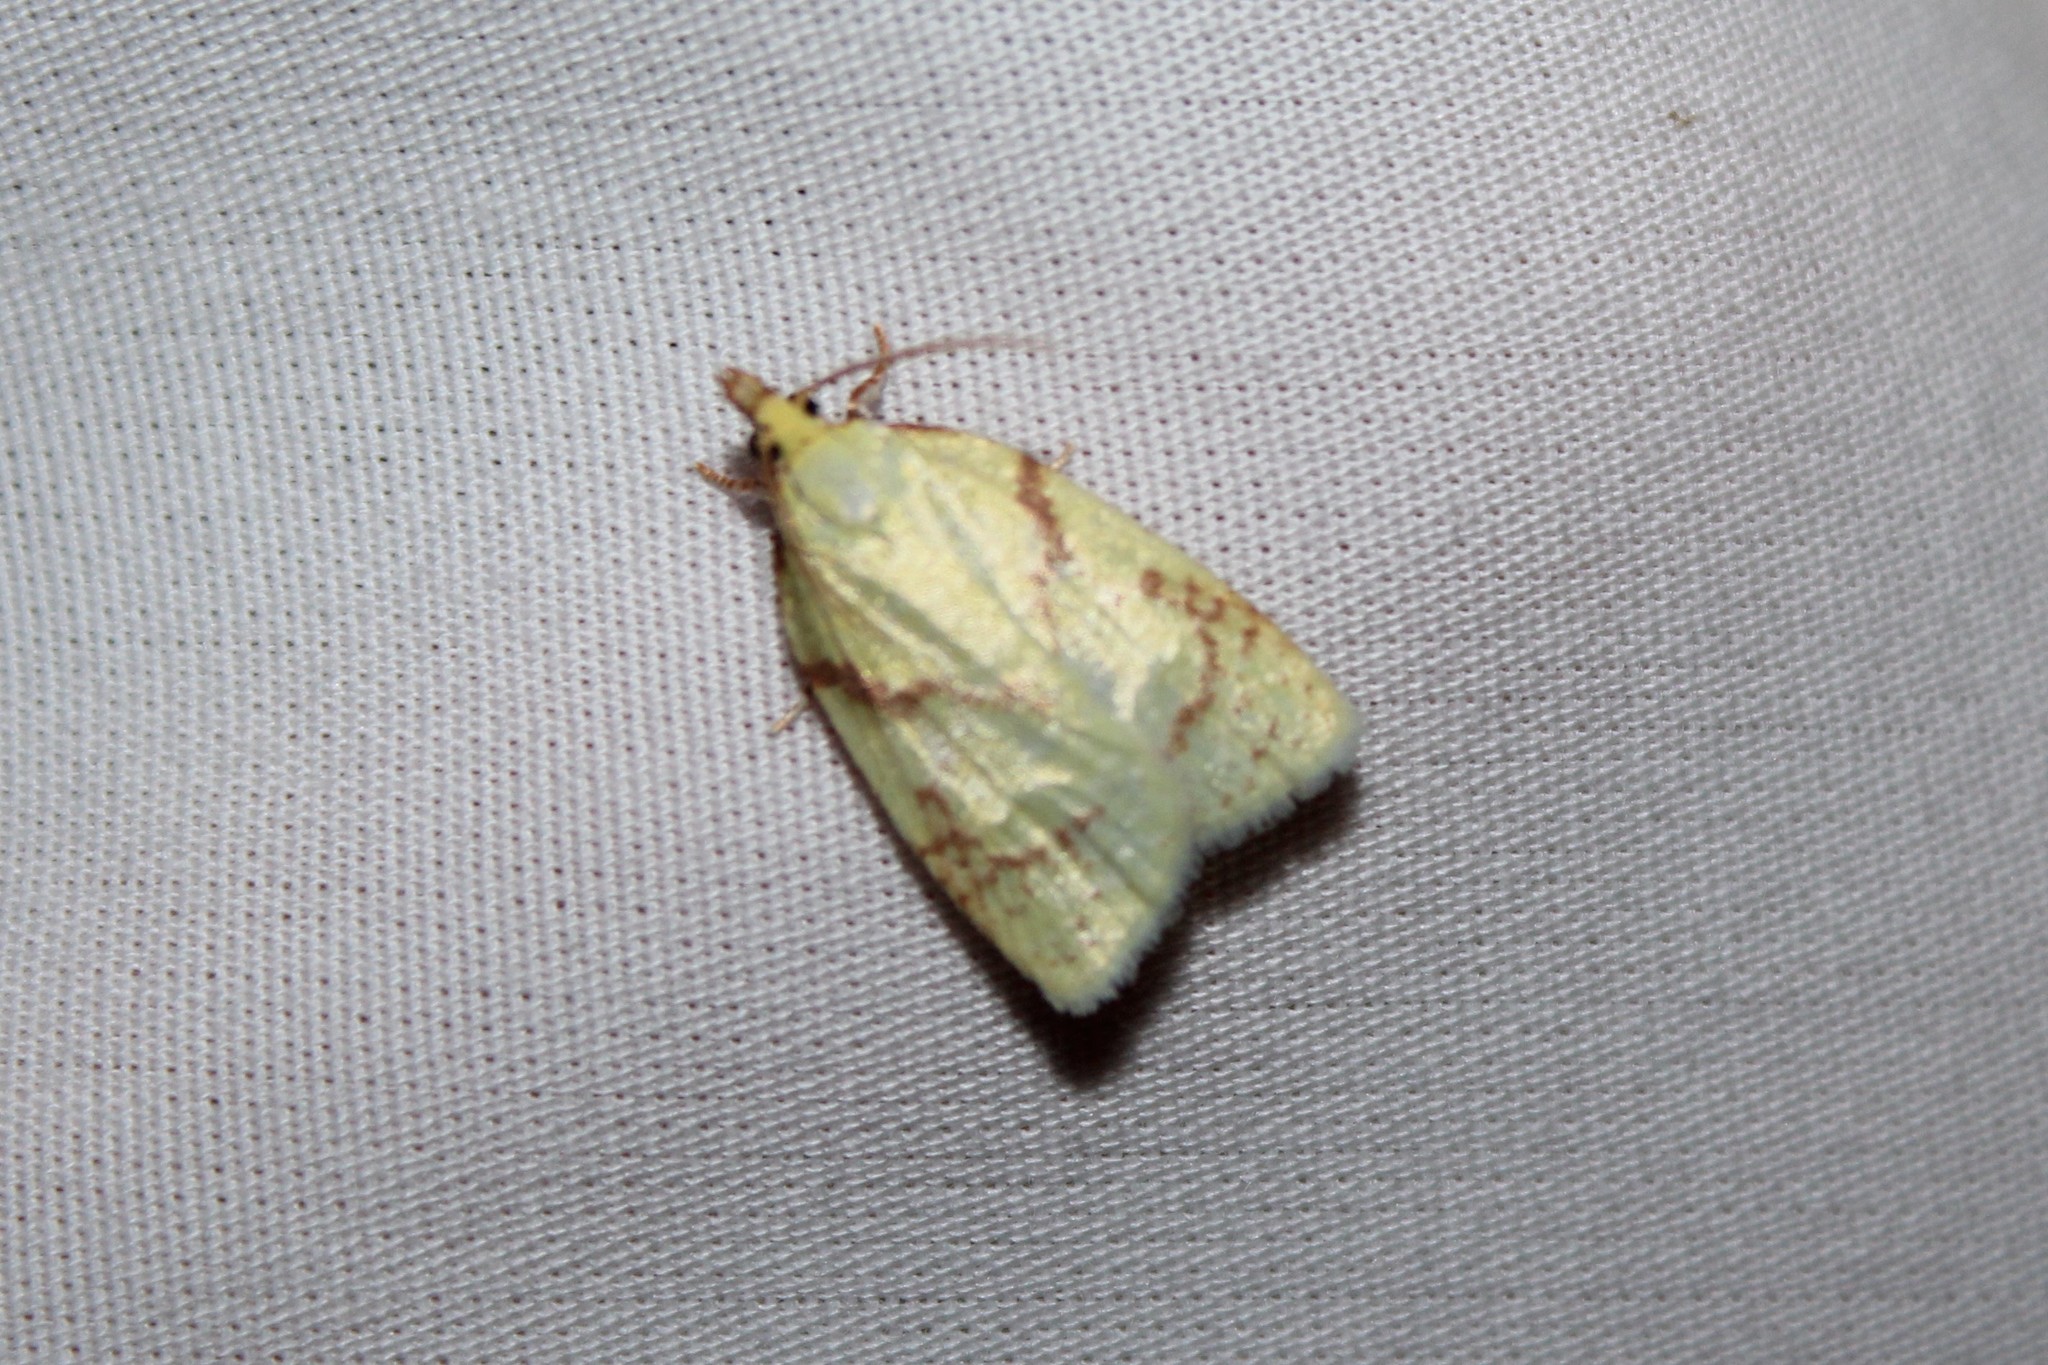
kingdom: Animalia
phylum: Arthropoda
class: Insecta
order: Lepidoptera
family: Tortricidae
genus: Cenopis
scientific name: Cenopis pettitana
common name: Maple-basswood leafroller moth
